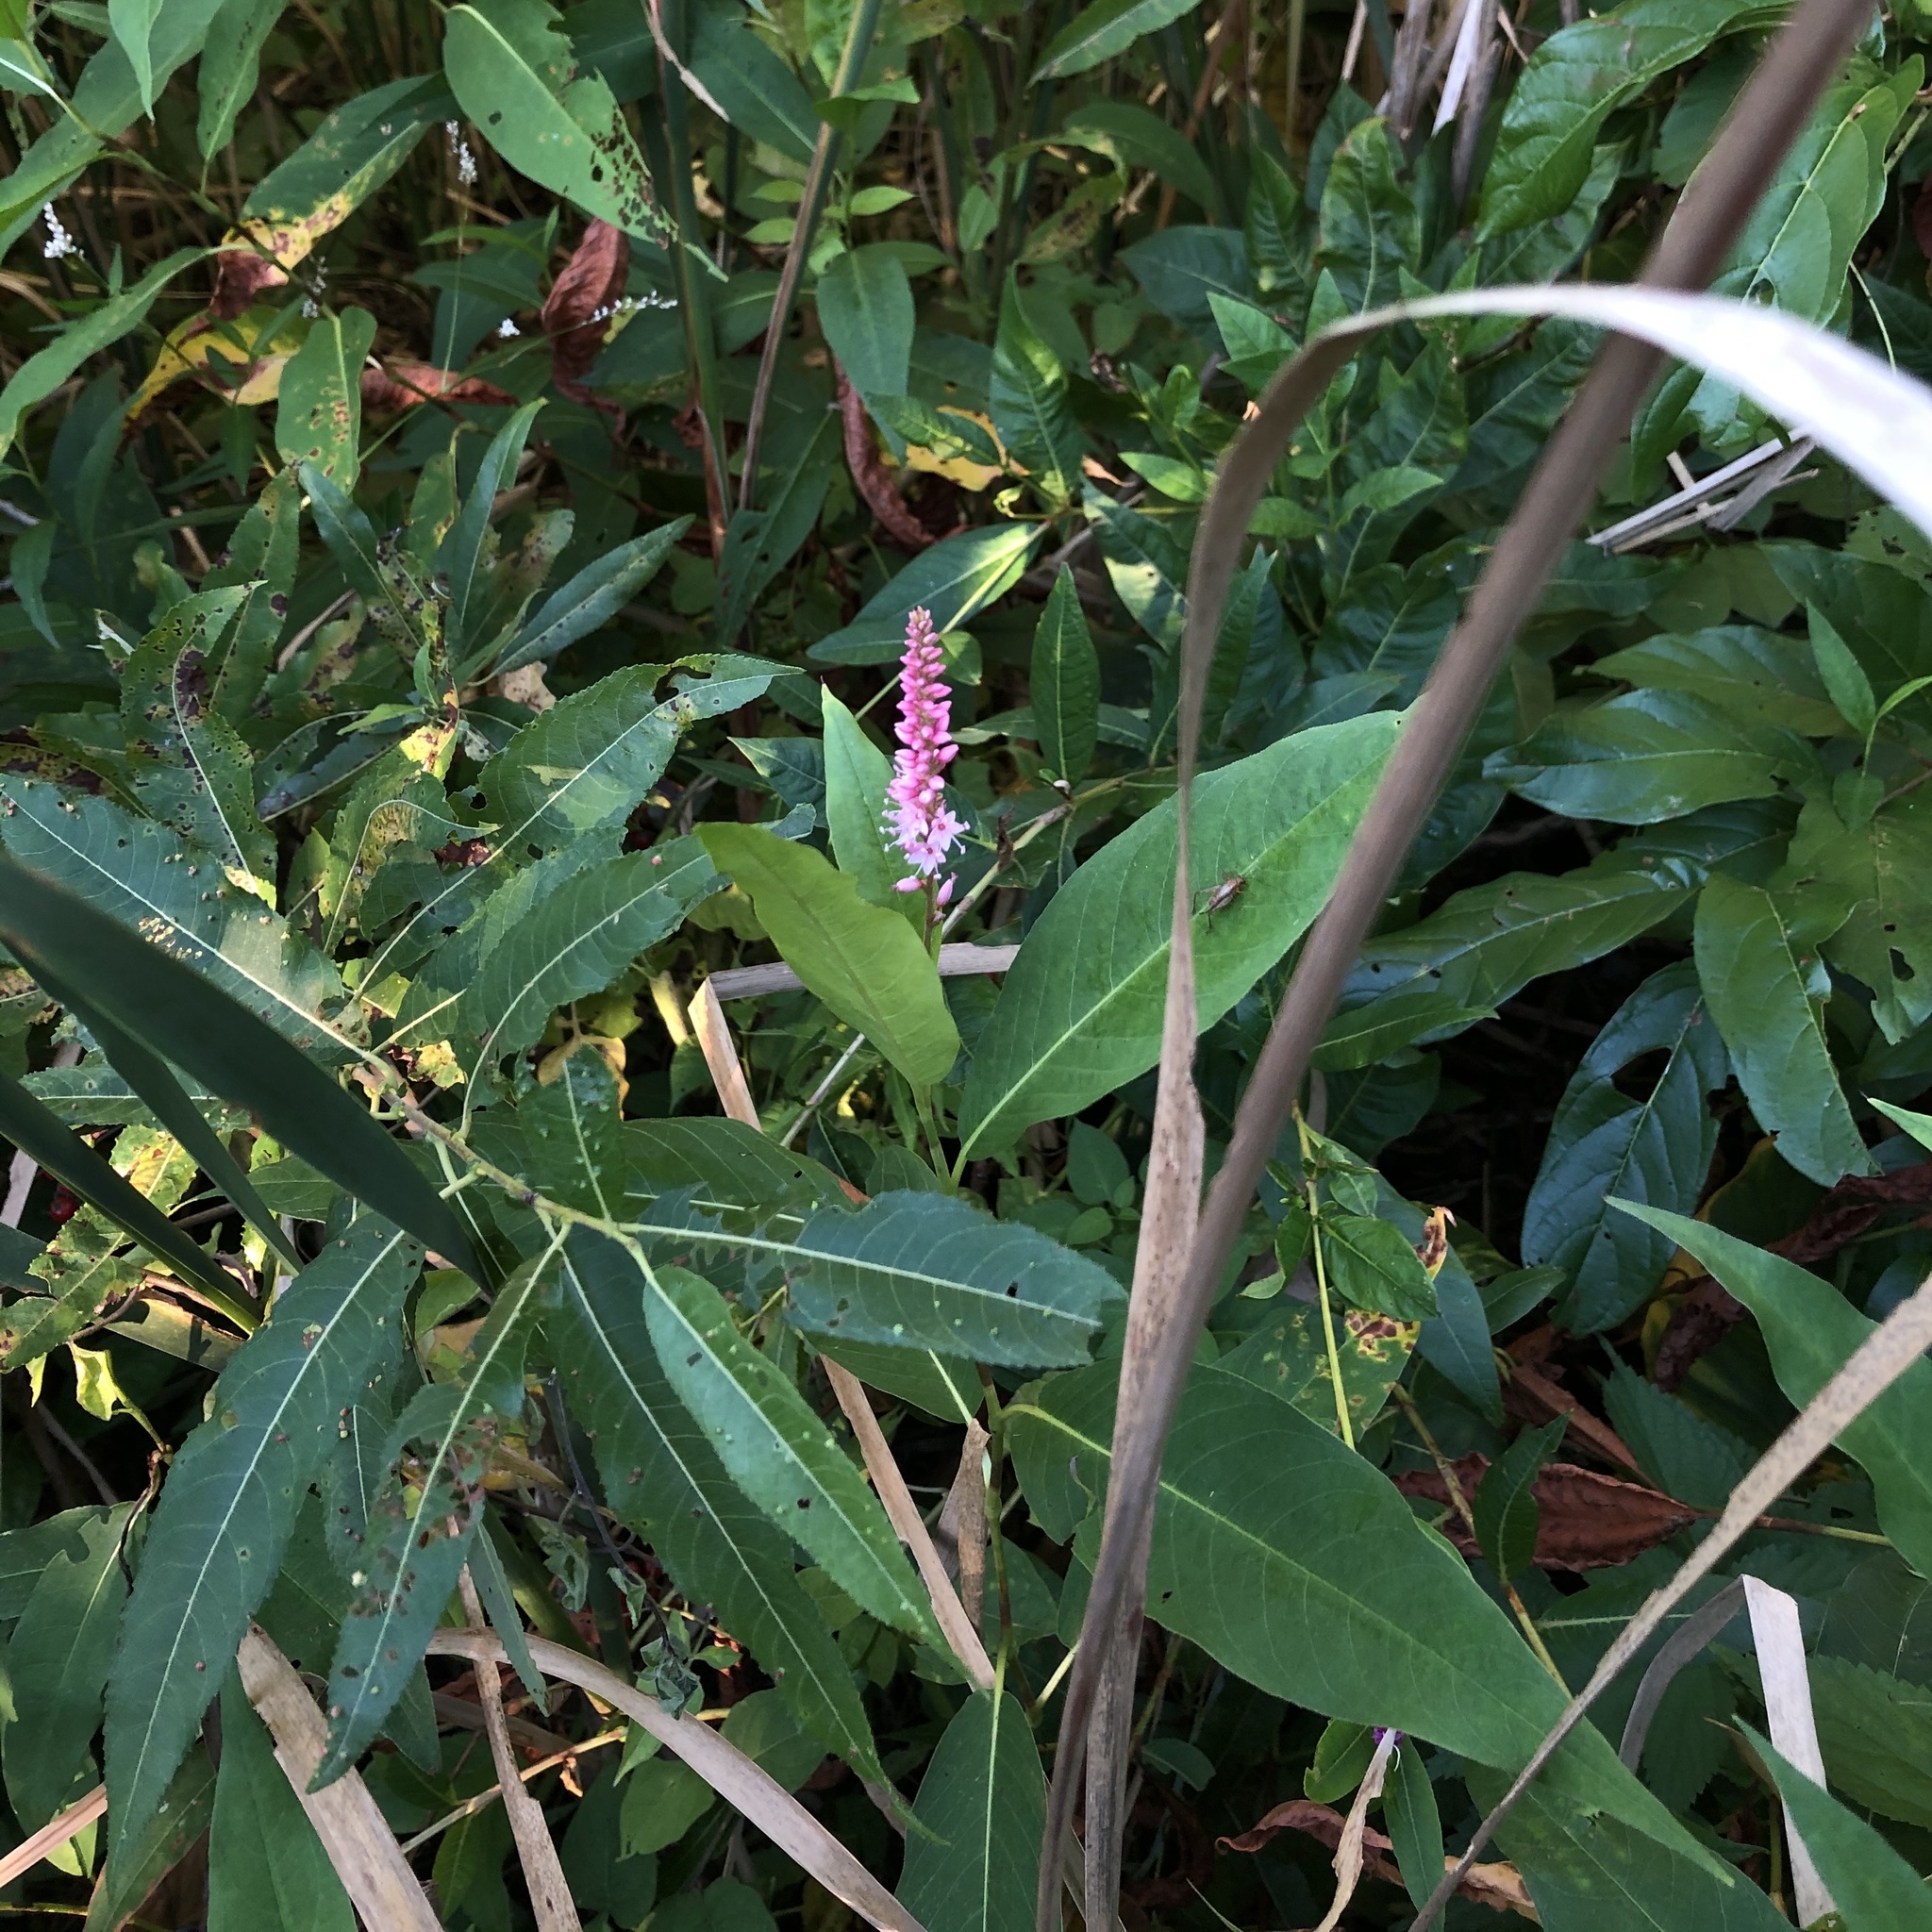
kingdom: Plantae
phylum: Tracheophyta
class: Magnoliopsida
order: Caryophyllales
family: Polygonaceae
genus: Persicaria
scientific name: Persicaria amphibia
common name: Amphibious bistort
